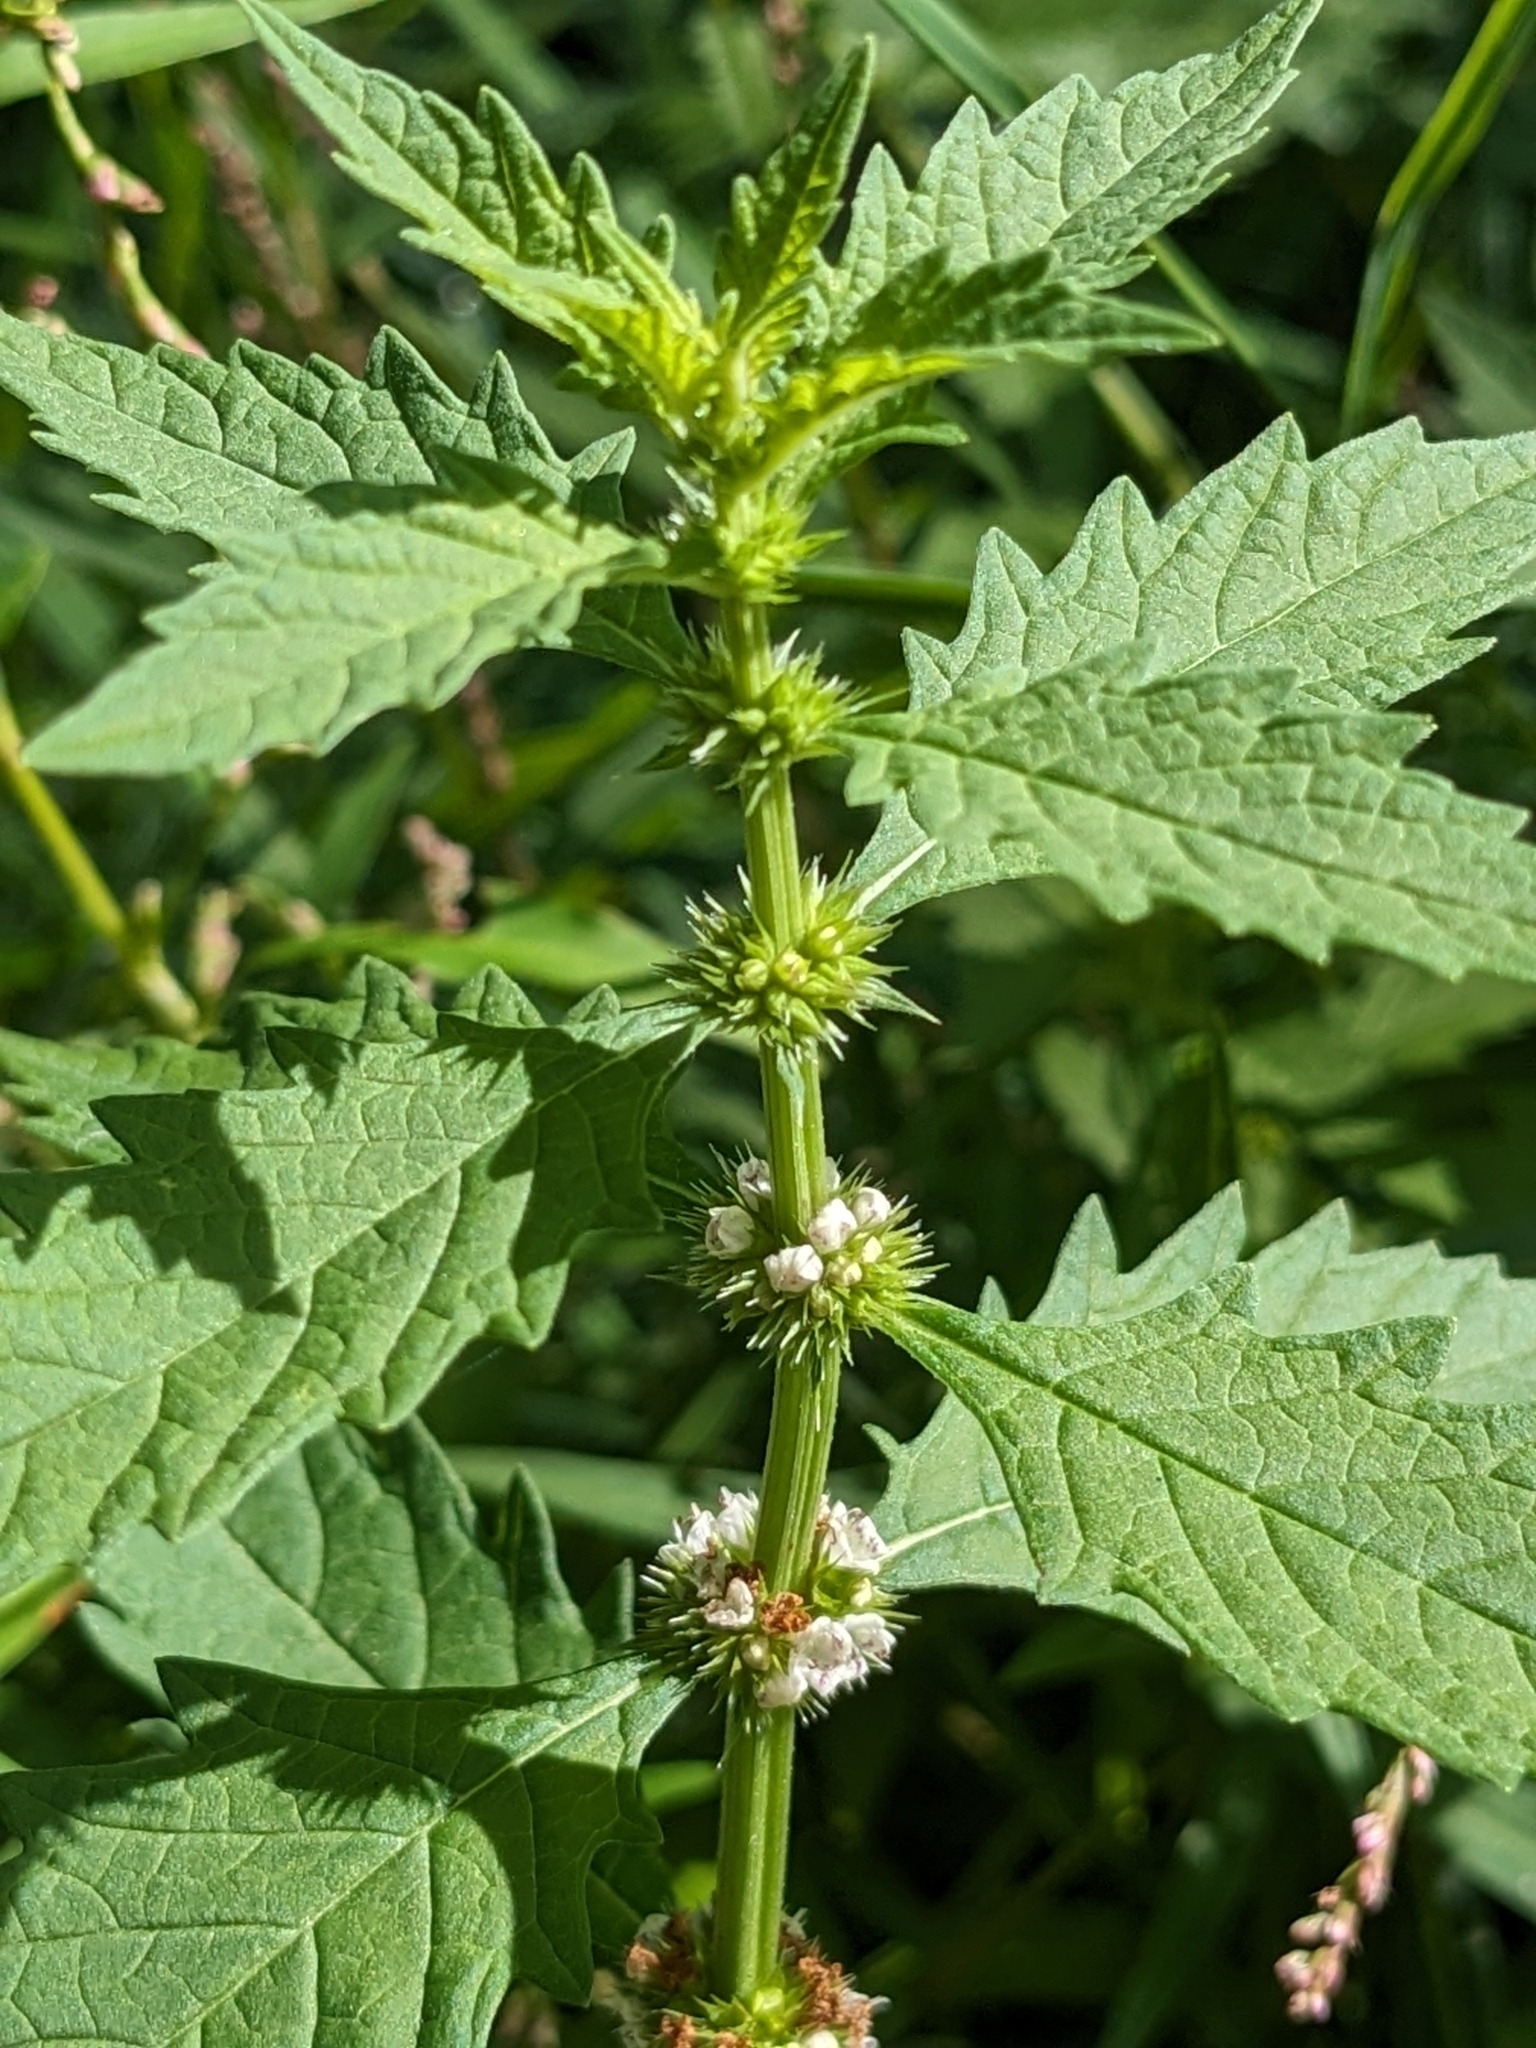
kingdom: Plantae
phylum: Tracheophyta
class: Magnoliopsida
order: Lamiales
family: Lamiaceae
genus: Lycopus
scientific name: Lycopus europaeus
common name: European bugleweed
